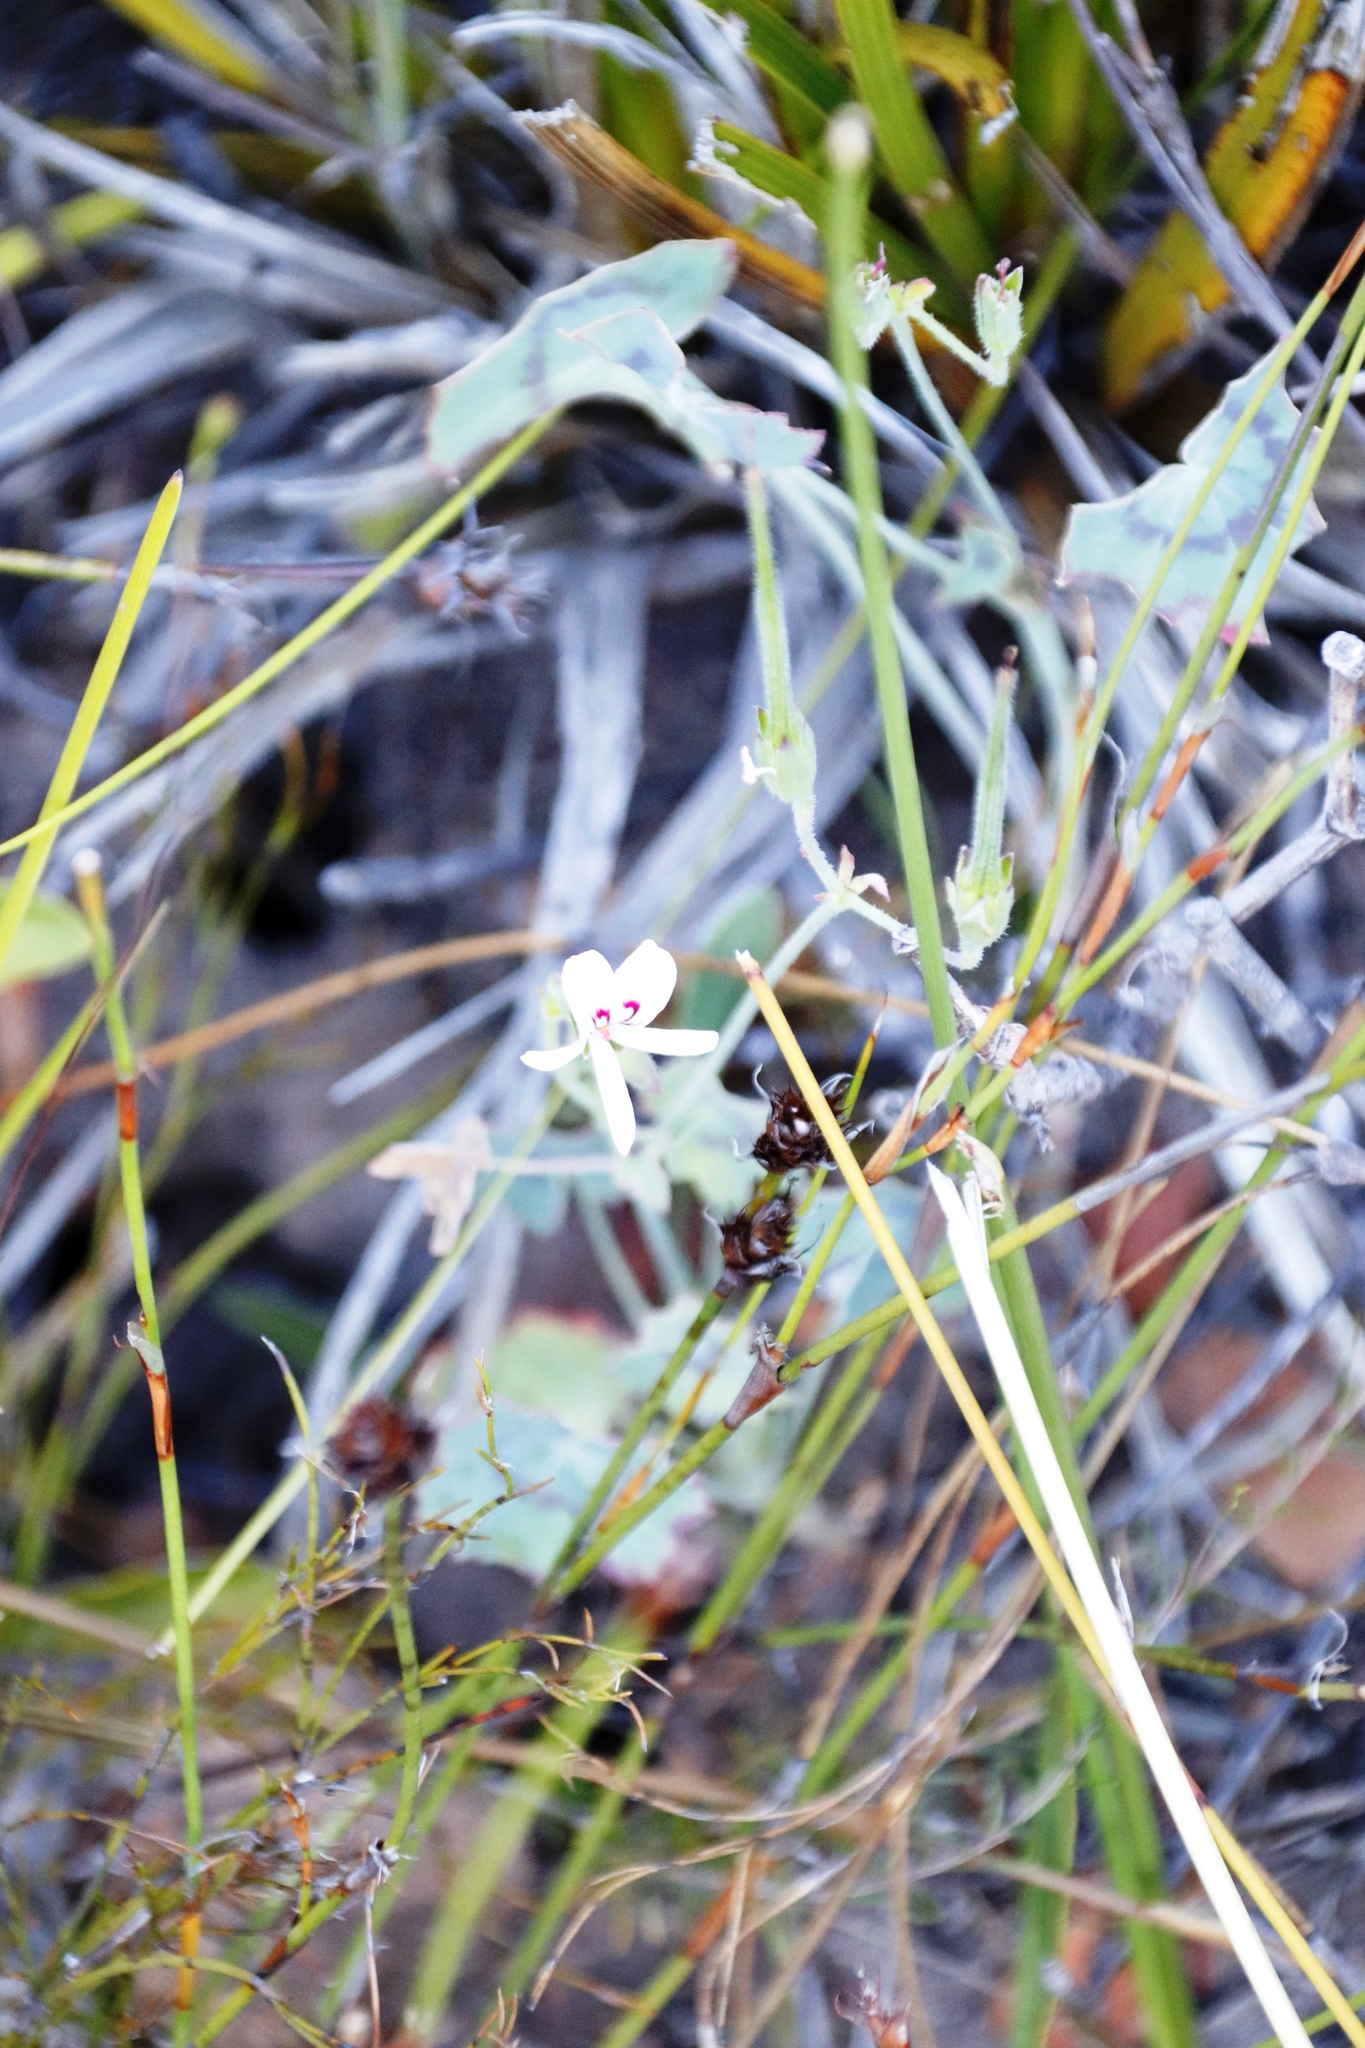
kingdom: Plantae
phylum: Tracheophyta
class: Magnoliopsida
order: Geraniales
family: Geraniaceae
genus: Pelargonium
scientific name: Pelargonium tabulare
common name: Table mountain pelargonium
